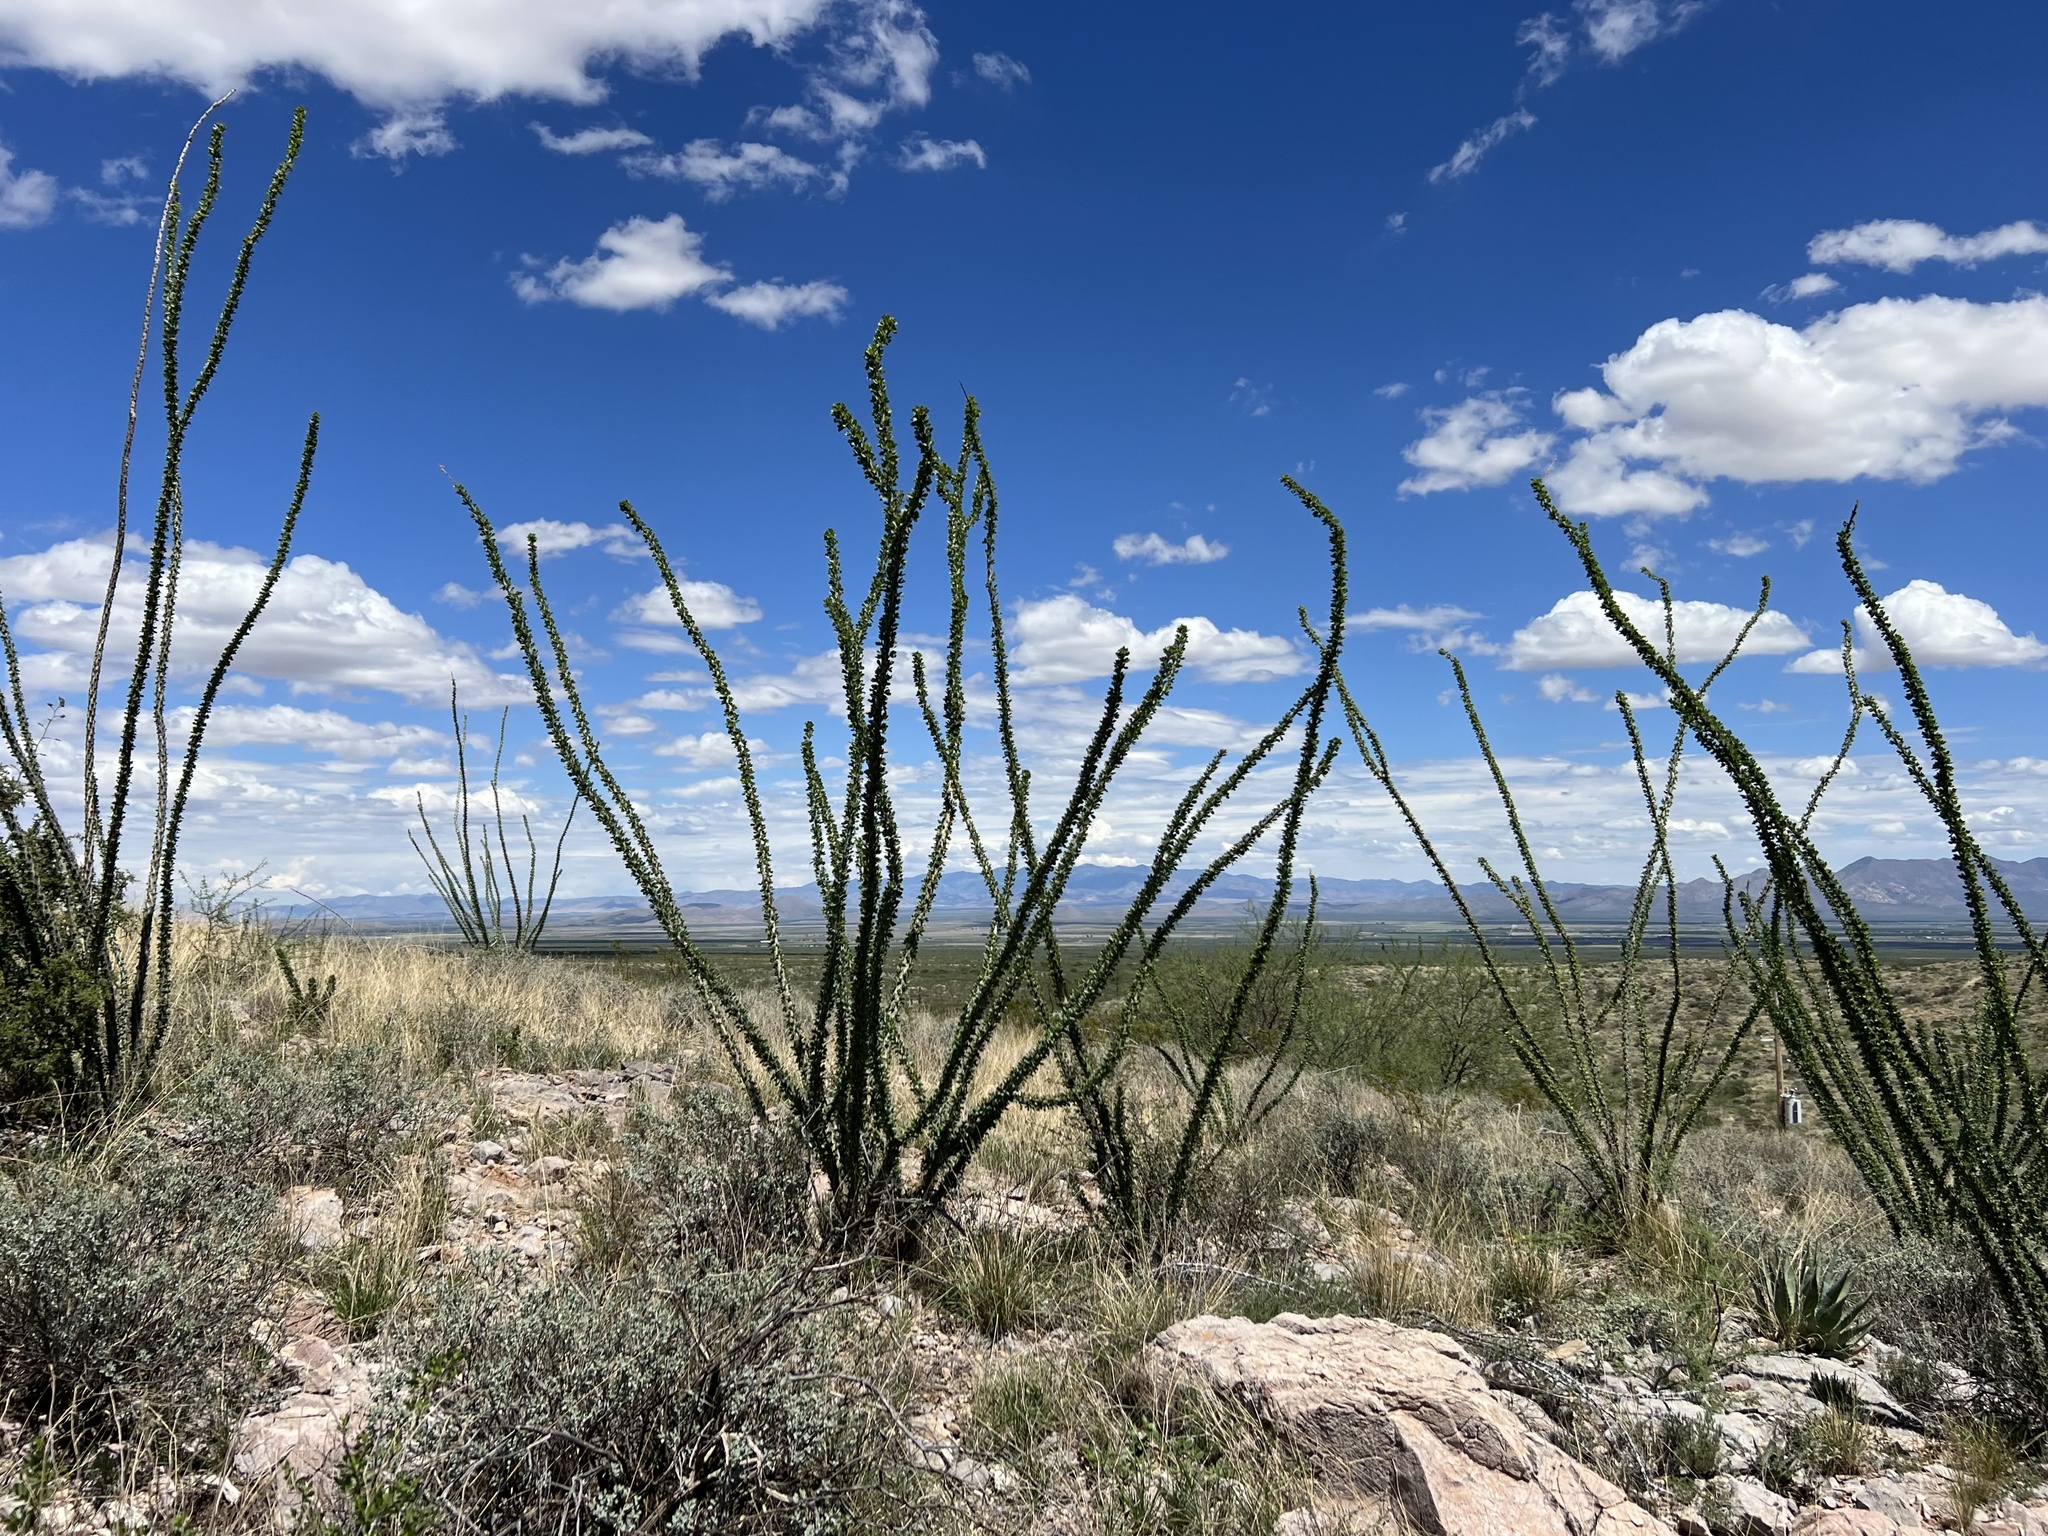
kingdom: Plantae
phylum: Tracheophyta
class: Magnoliopsida
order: Ericales
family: Fouquieriaceae
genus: Fouquieria
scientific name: Fouquieria splendens
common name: Vine-cactus
